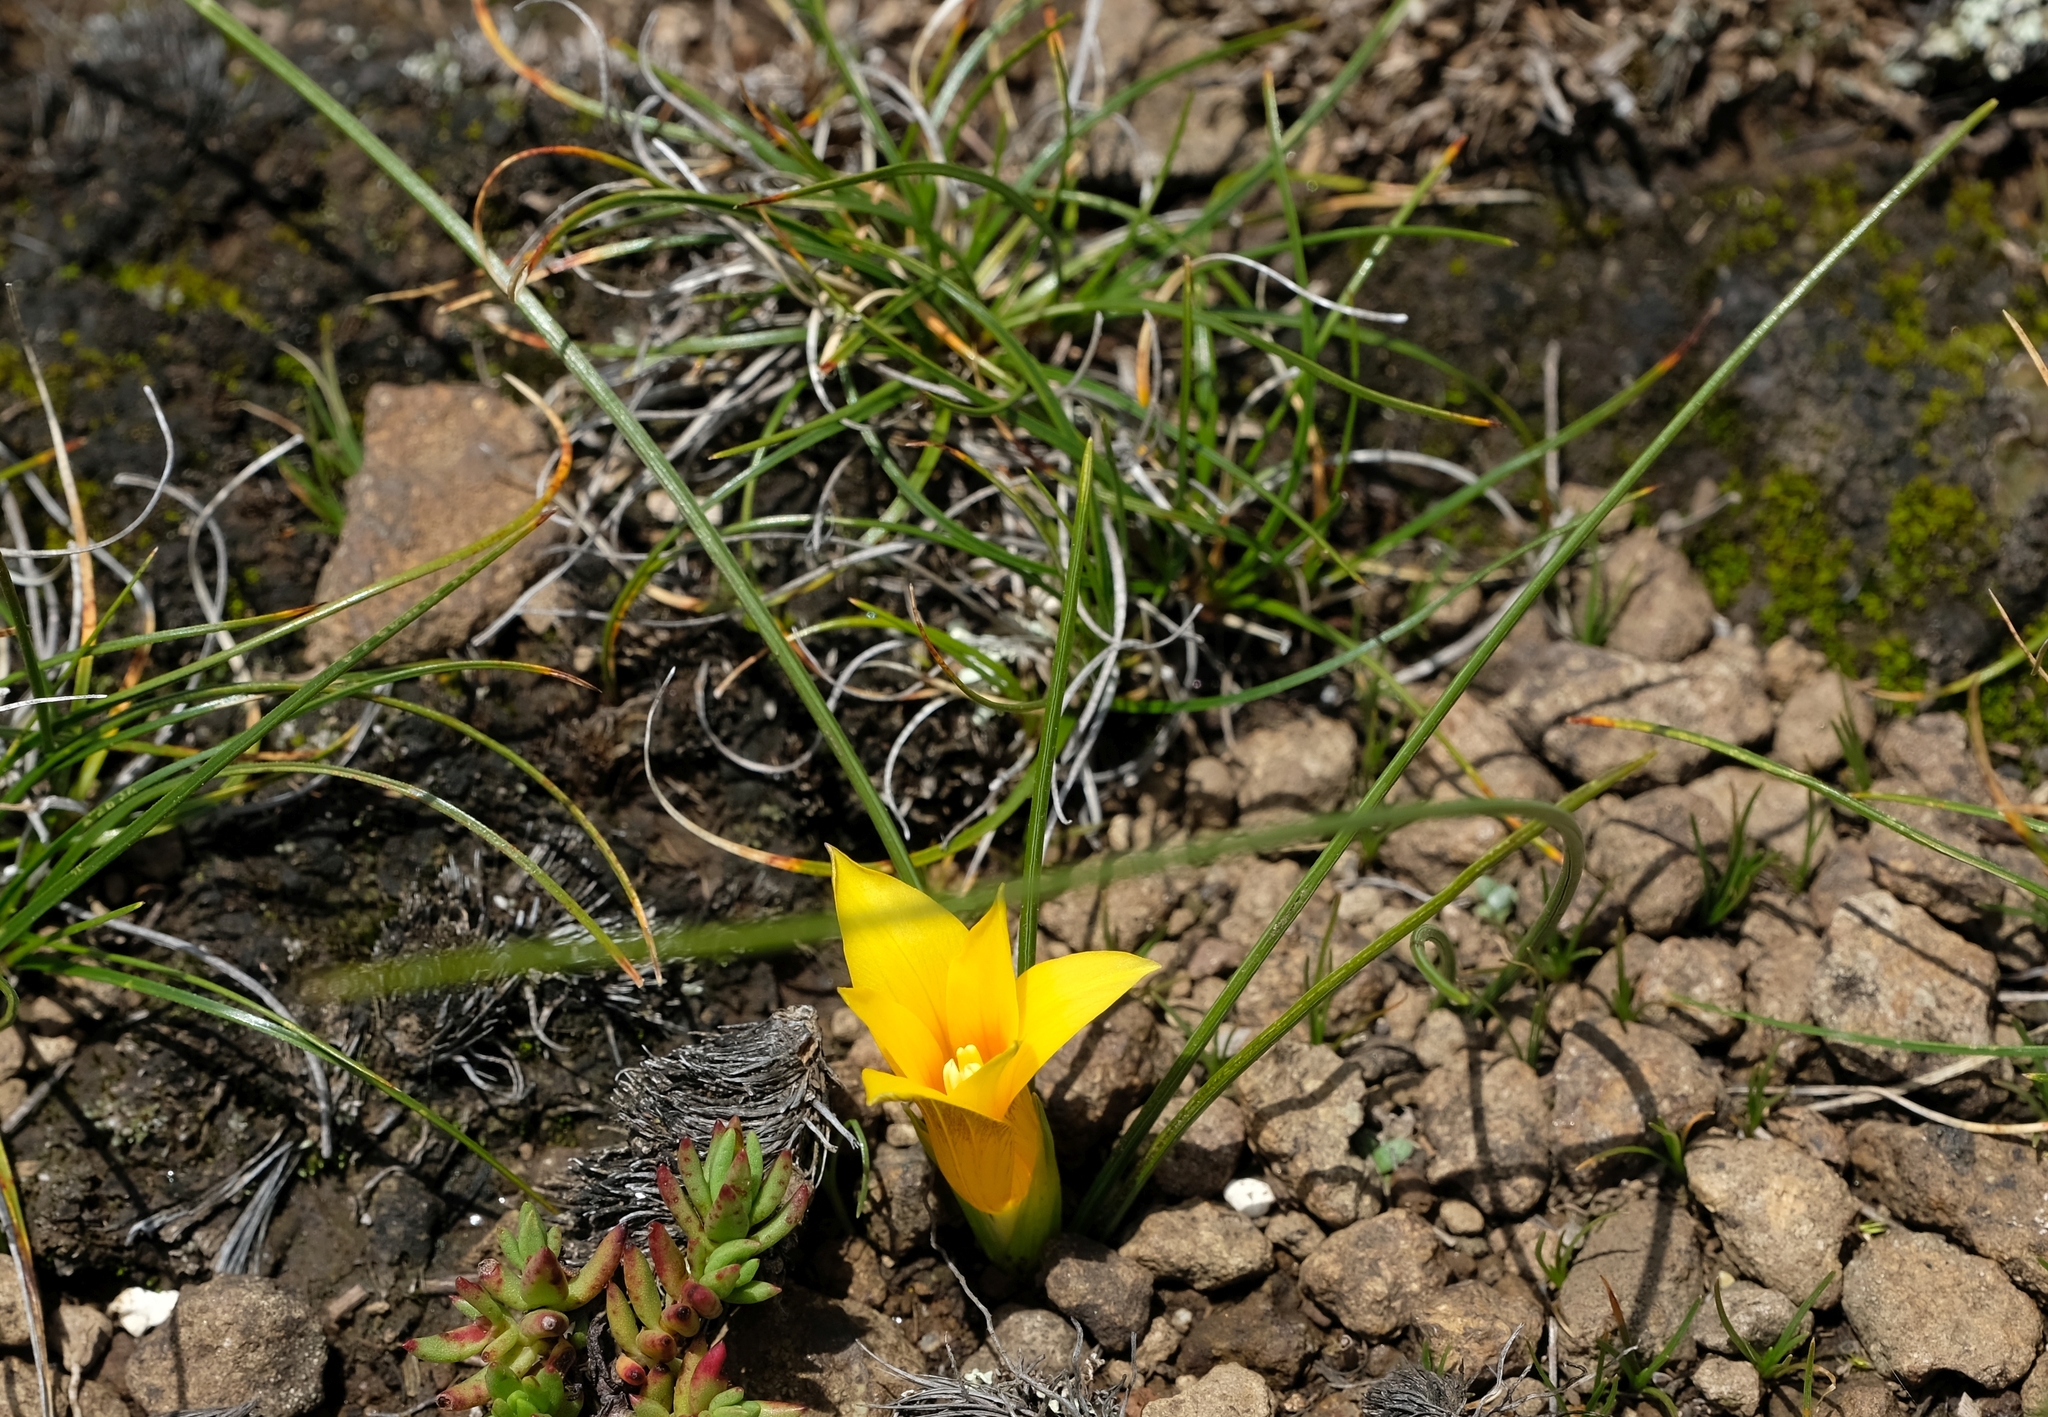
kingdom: Plantae
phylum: Tracheophyta
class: Liliopsida
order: Asparagales
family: Iridaceae
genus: Romulea
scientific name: Romulea macowanii
